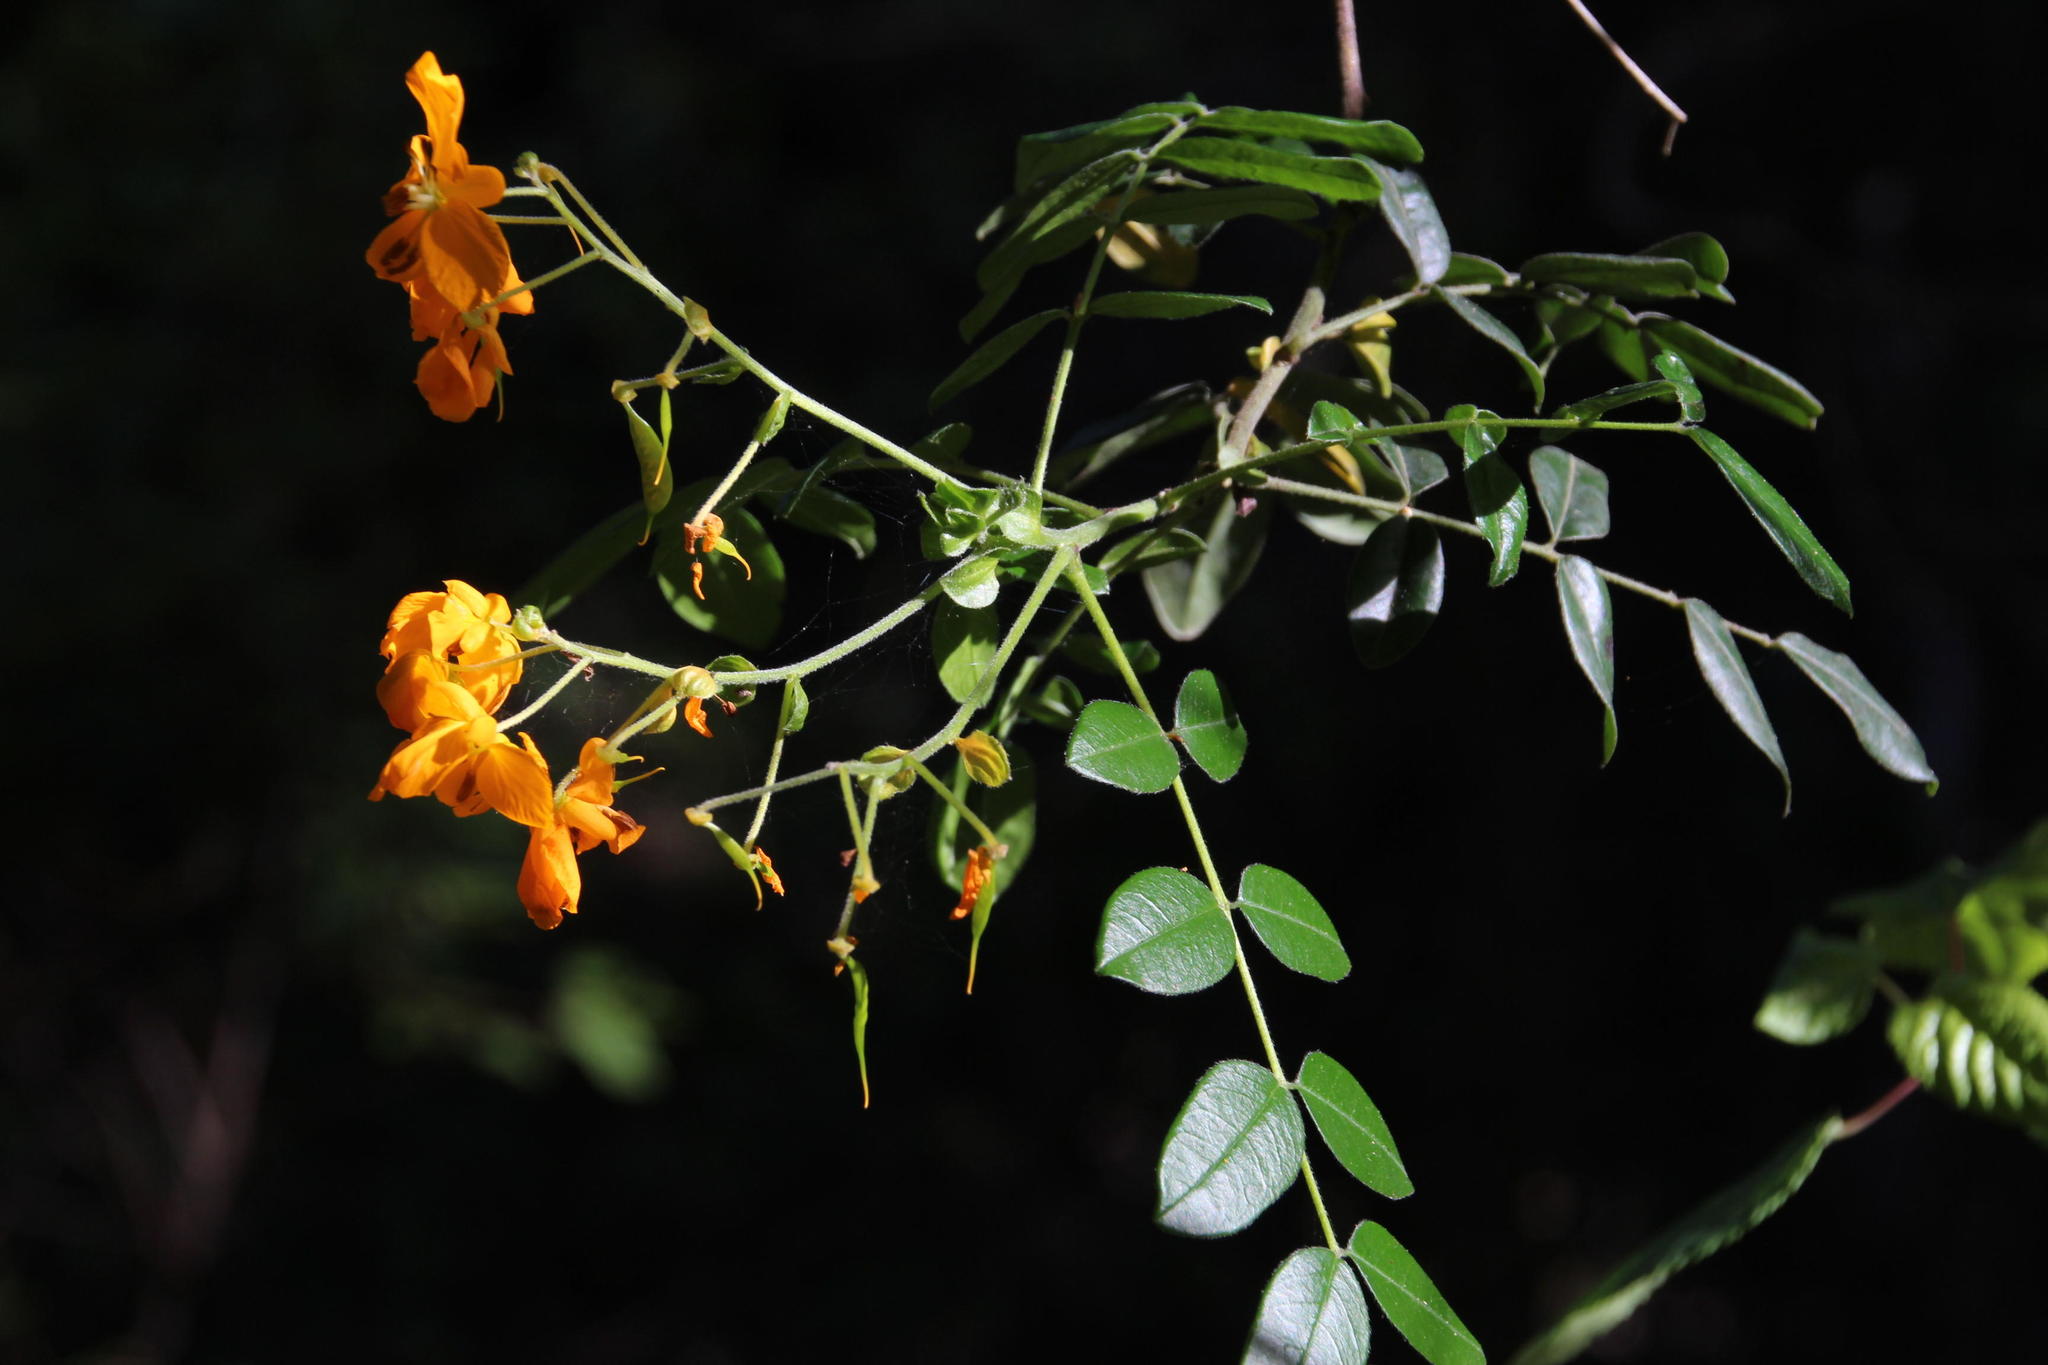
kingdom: Plantae
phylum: Tracheophyta
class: Magnoliopsida
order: Fabales
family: Fabaceae
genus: Senna
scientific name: Senna stipulacea
